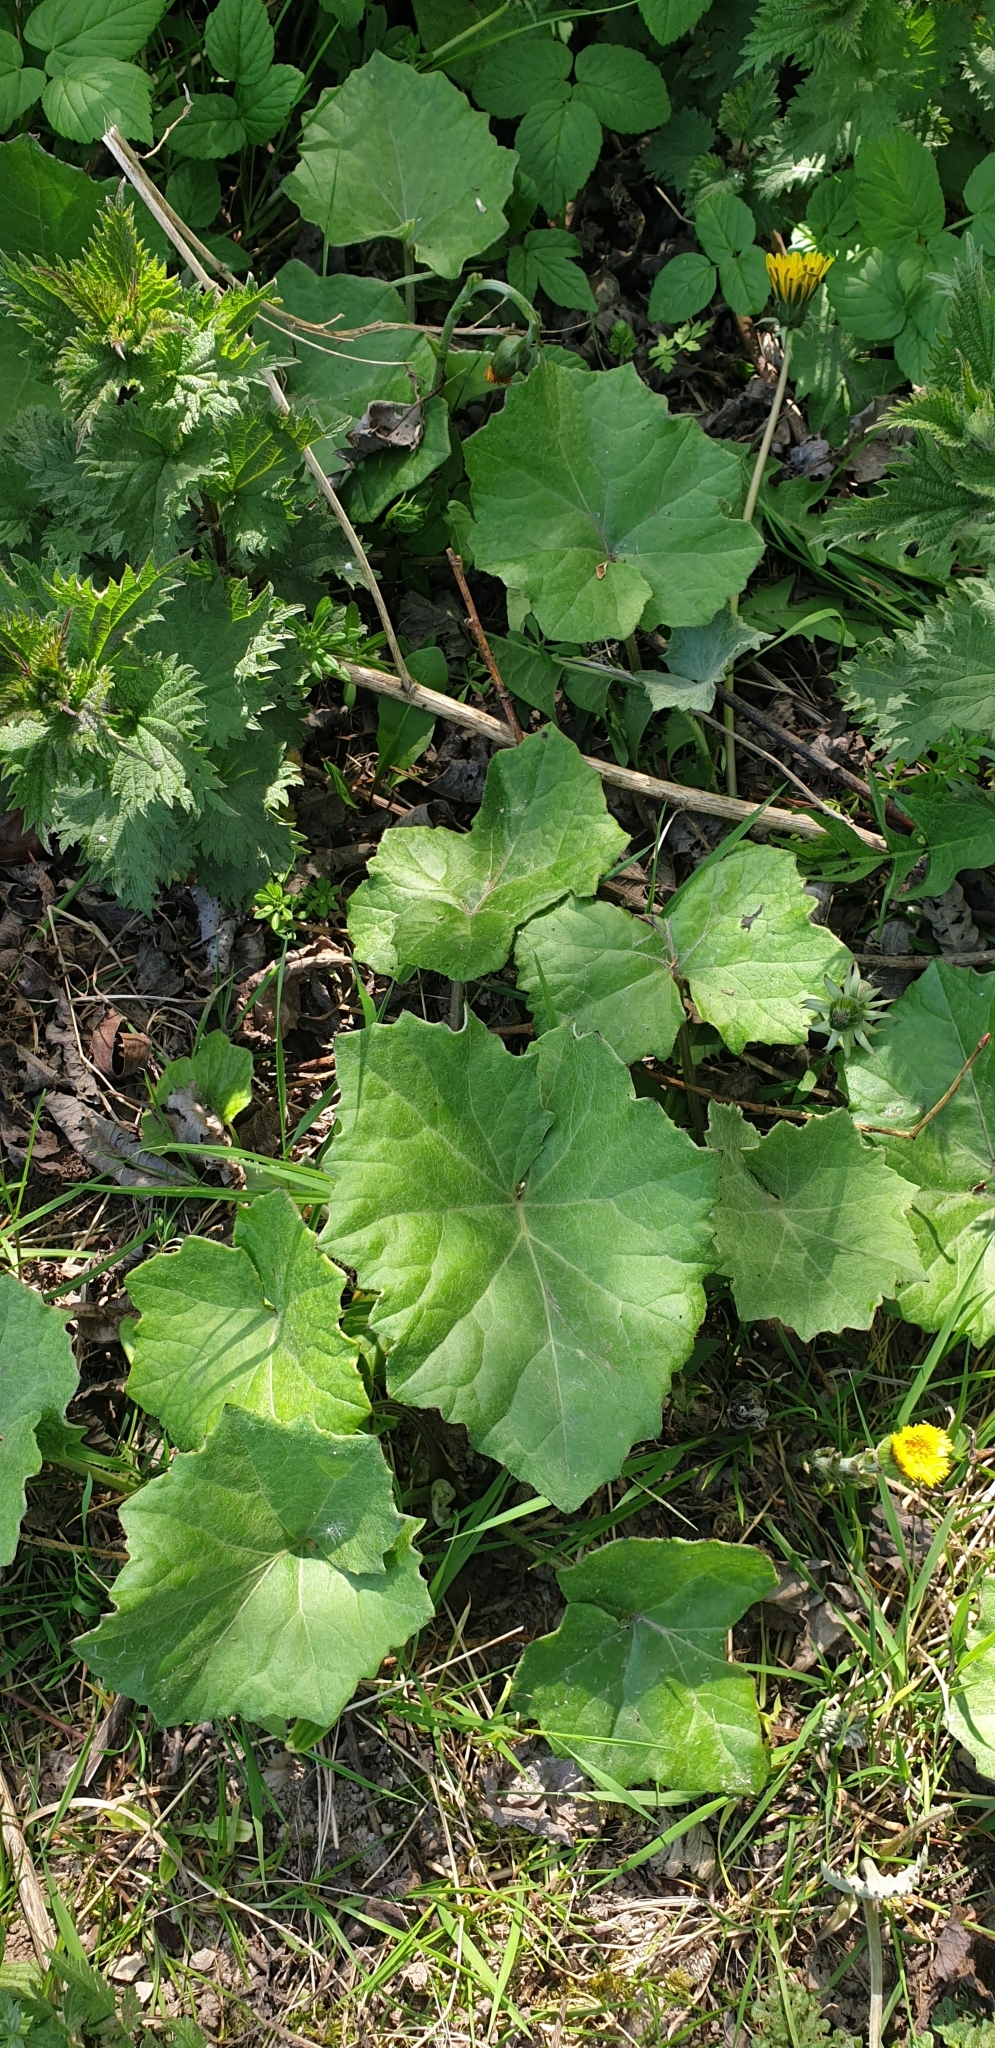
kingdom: Plantae
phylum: Tracheophyta
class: Magnoliopsida
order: Asterales
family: Asteraceae
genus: Tussilago
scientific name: Tussilago farfara
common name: Coltsfoot
